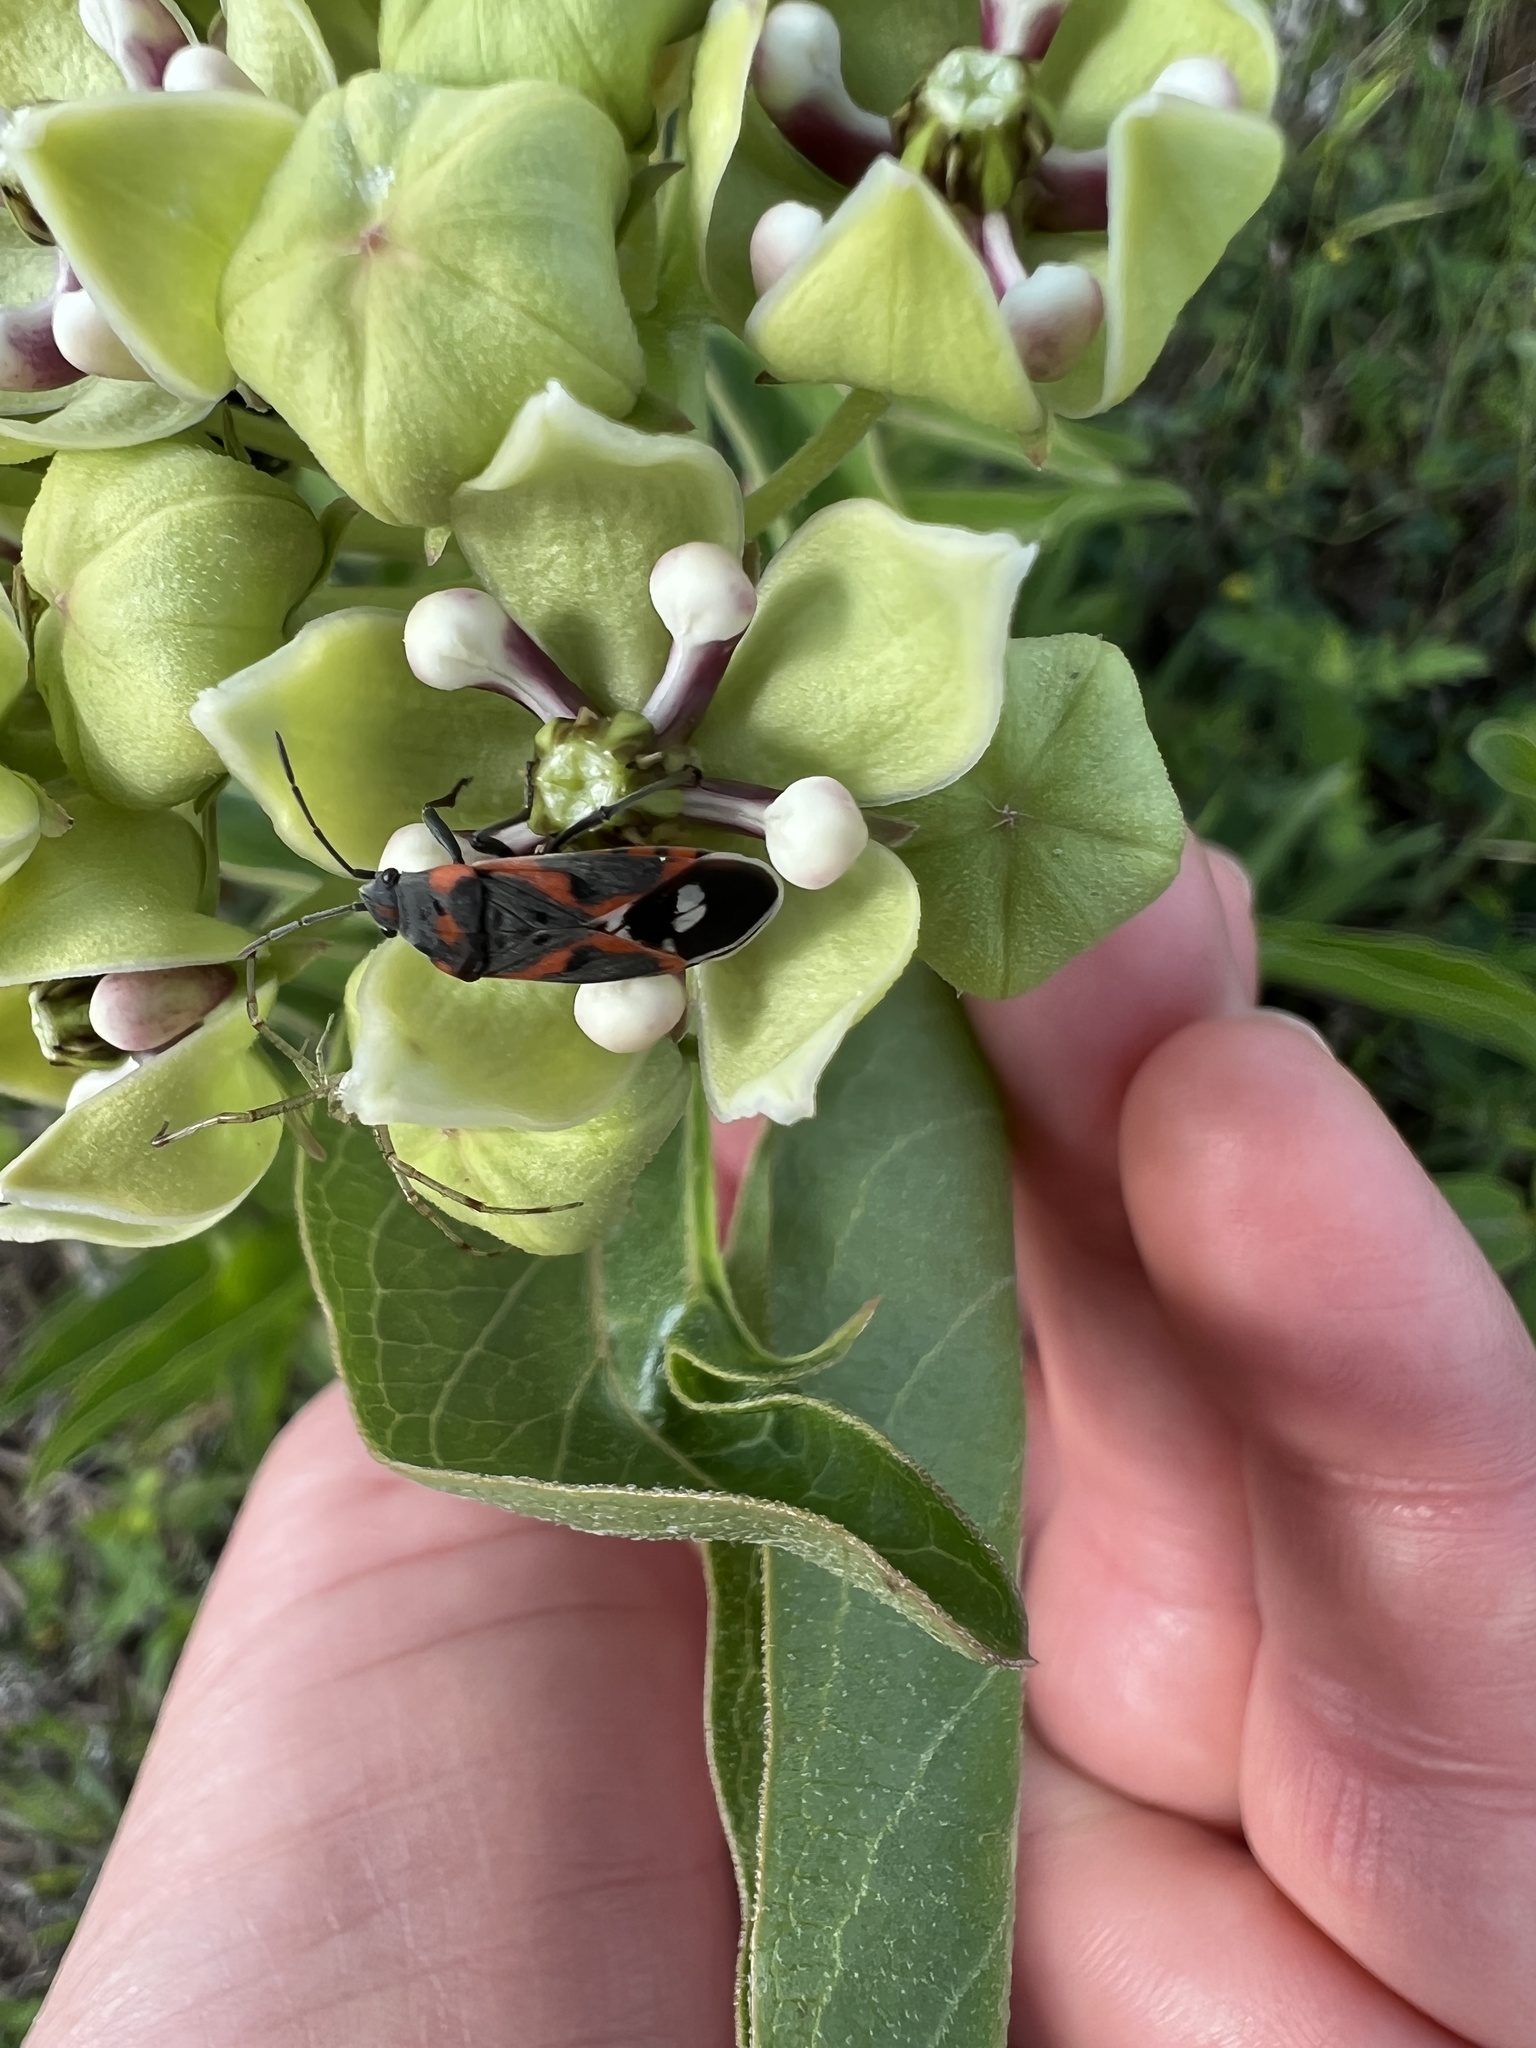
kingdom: Animalia
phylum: Arthropoda
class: Insecta
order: Hemiptera
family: Lygaeidae
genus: Lygaeus
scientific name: Lygaeus kalmii
